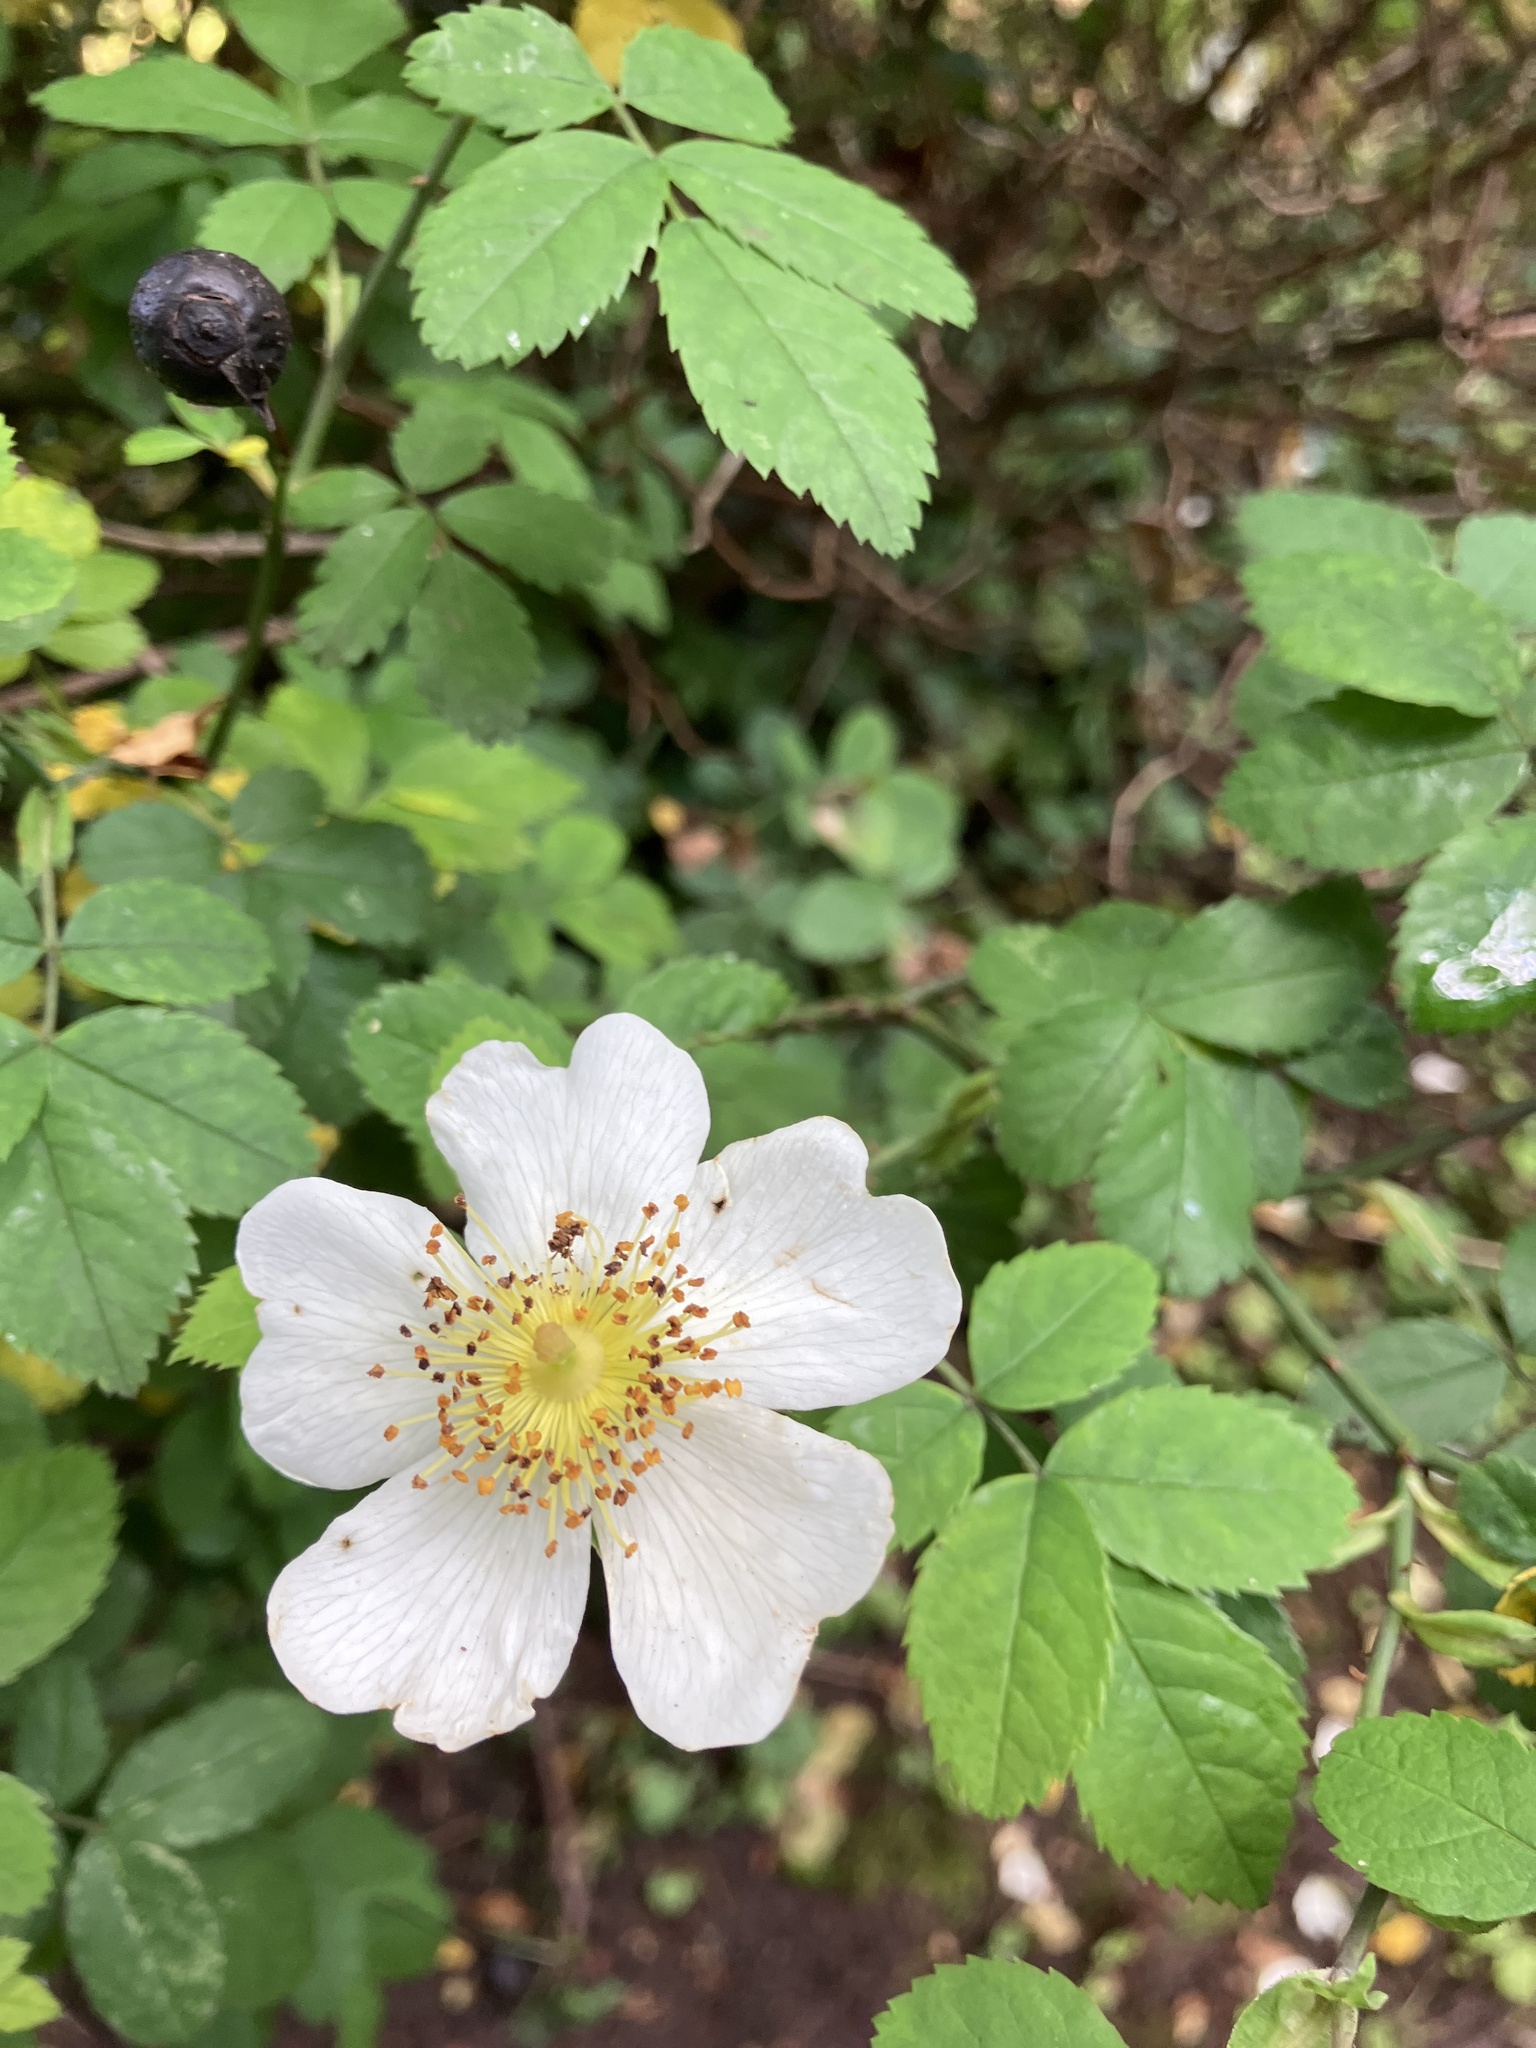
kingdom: Plantae
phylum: Tracheophyta
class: Magnoliopsida
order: Rosales
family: Rosaceae
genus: Rosa
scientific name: Rosa arvensis
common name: Field rose
